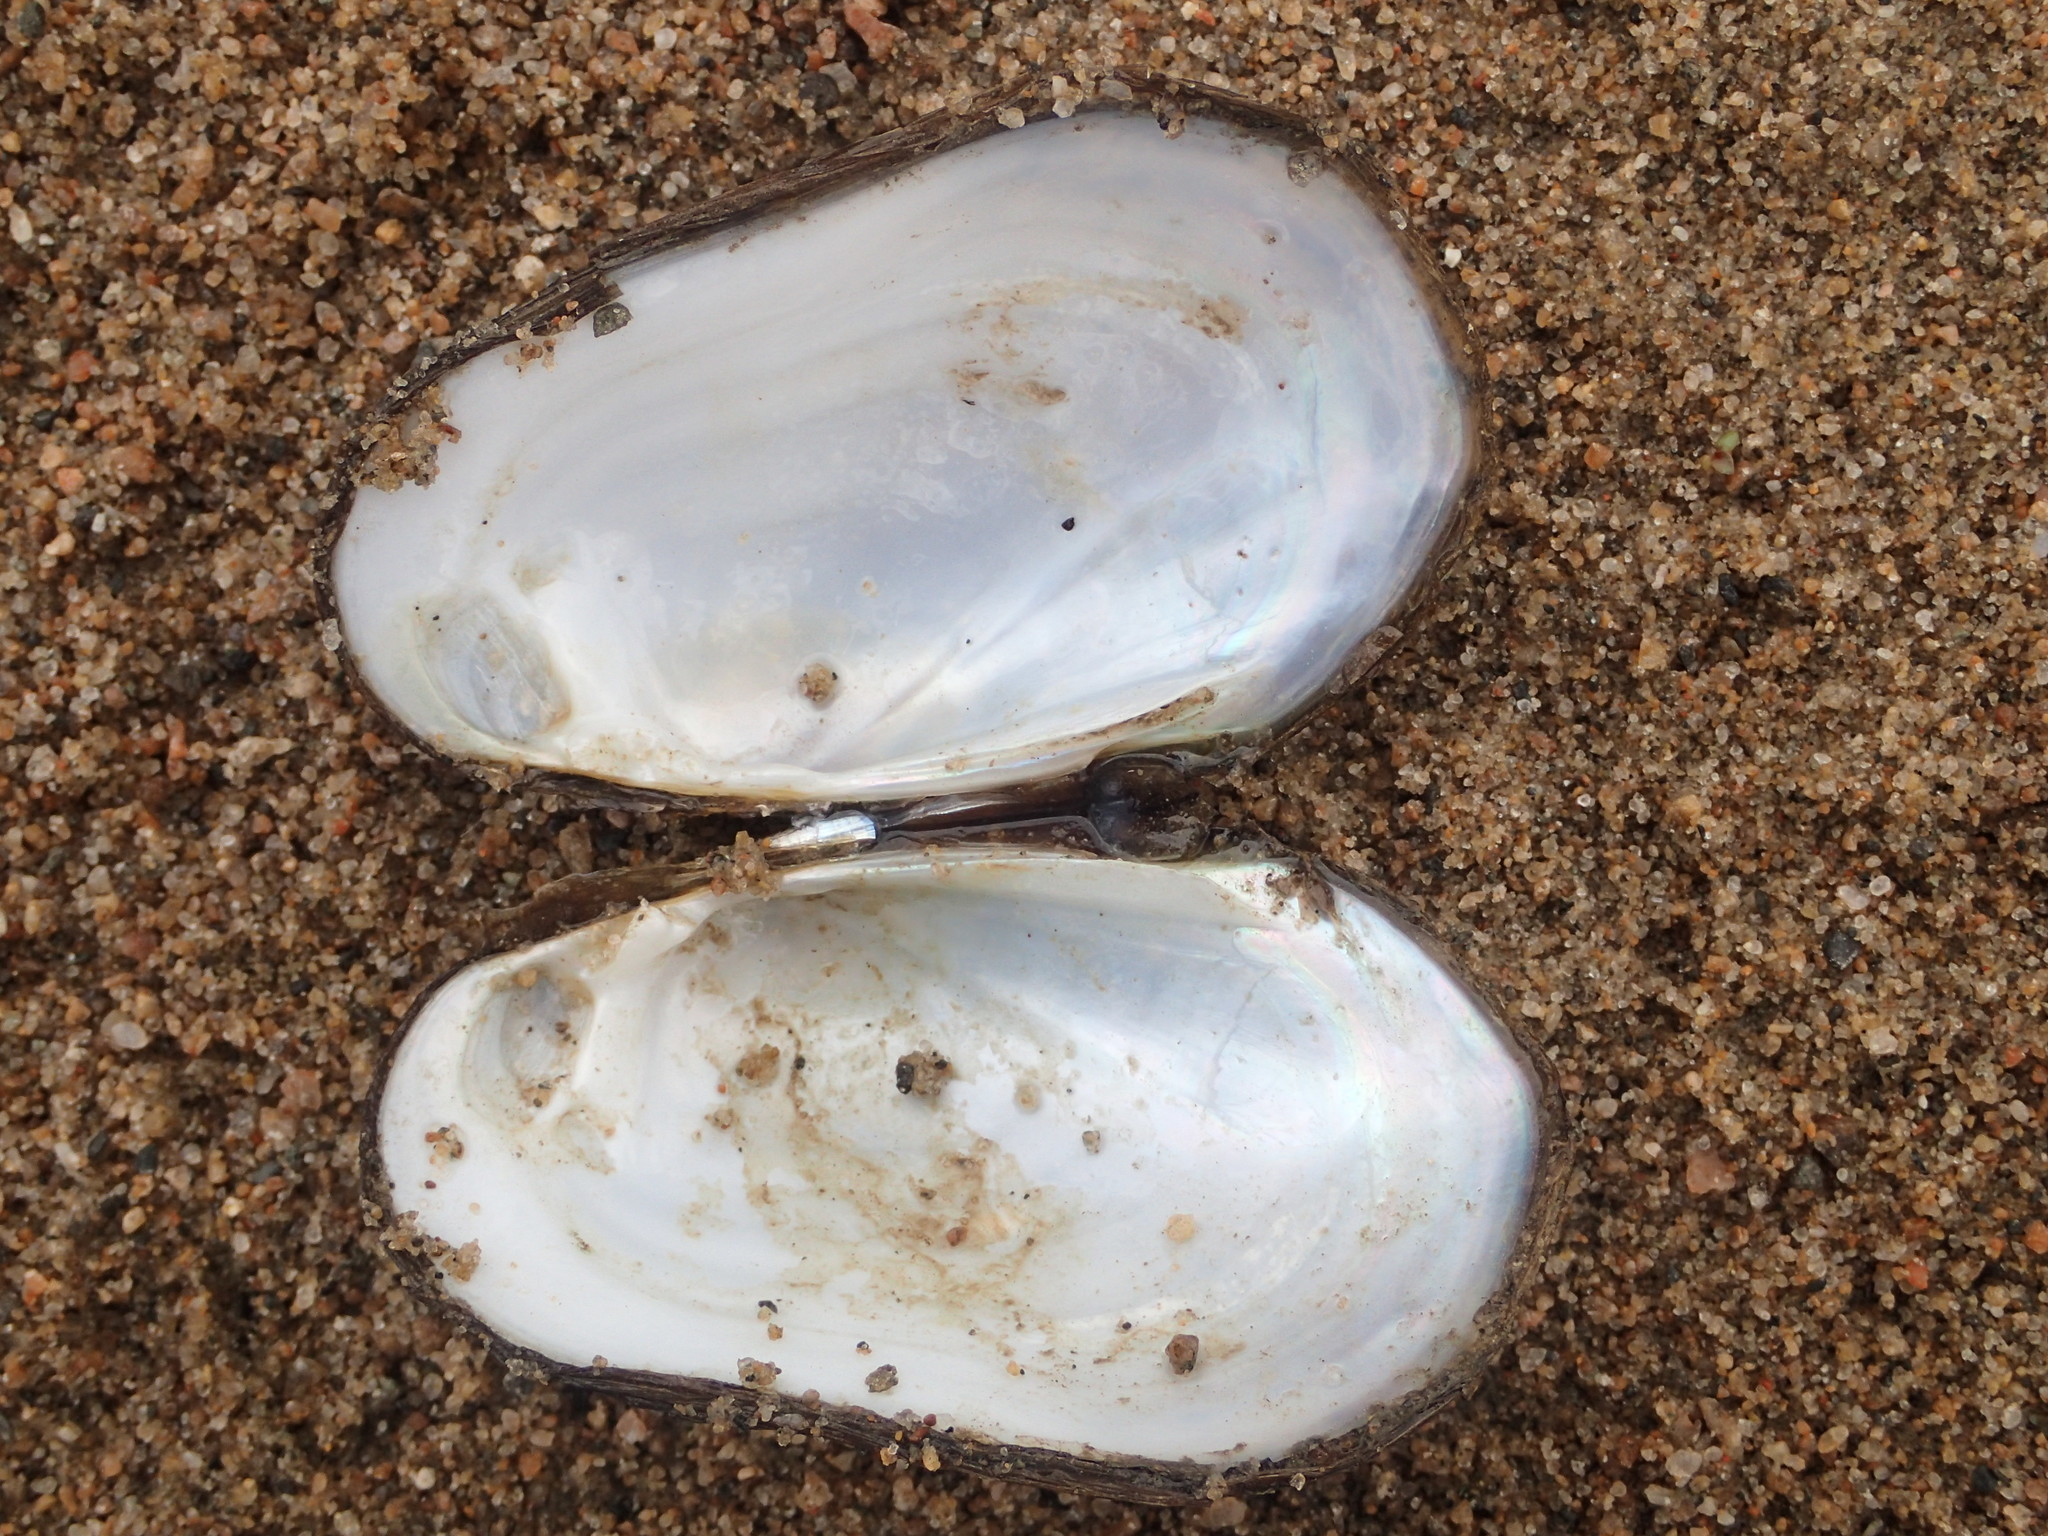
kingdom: Animalia
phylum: Mollusca
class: Bivalvia
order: Unionida
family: Unionidae
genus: Lampsilis
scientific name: Lampsilis siliquoidea
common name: Fatmucket
